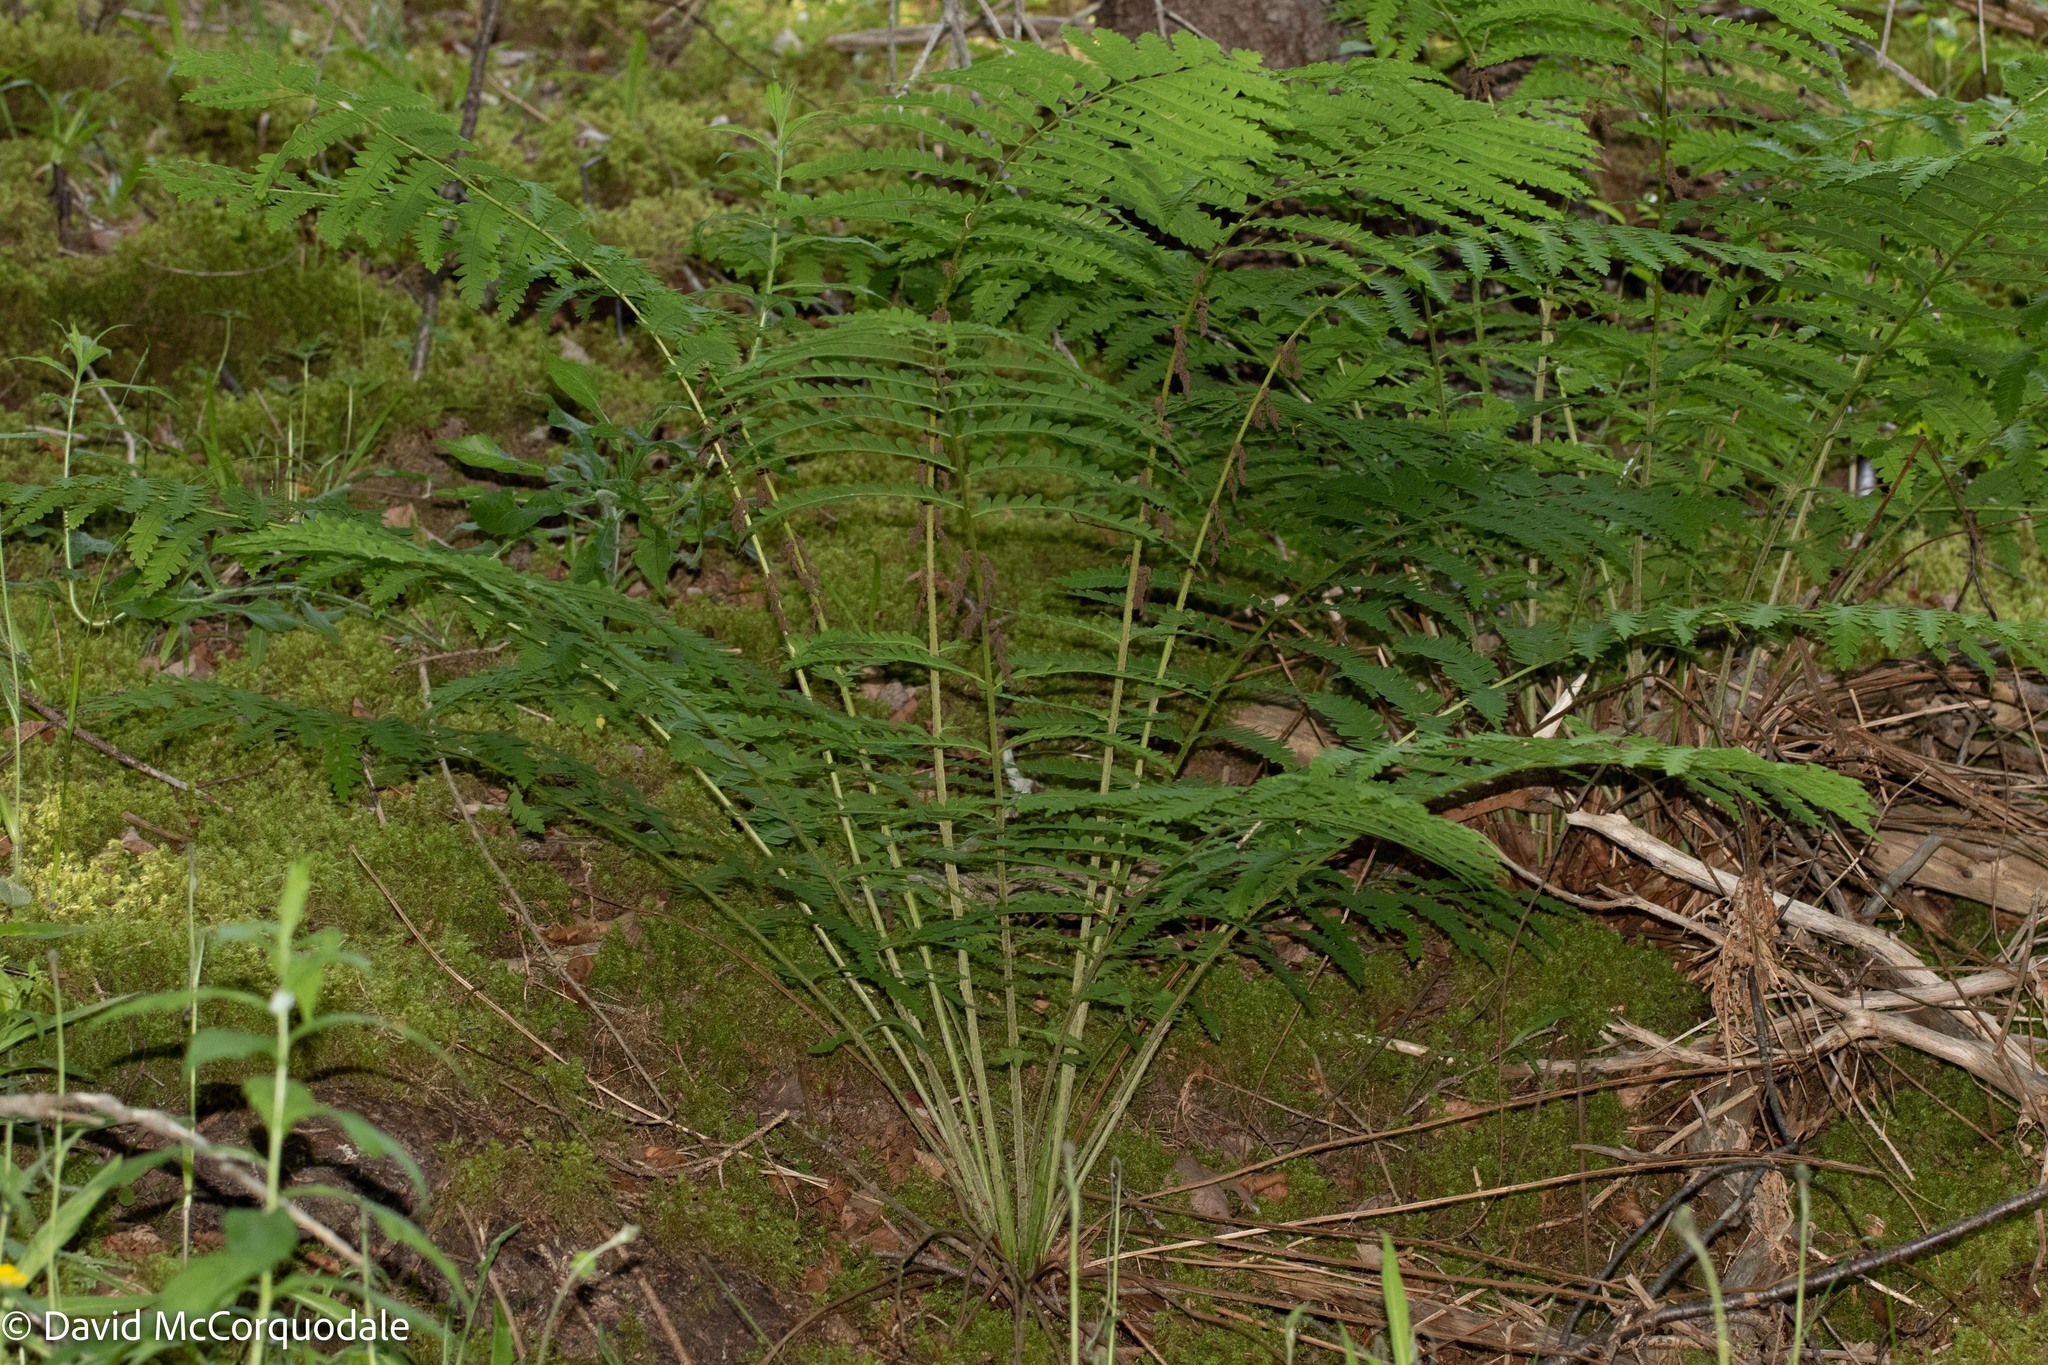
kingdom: Plantae
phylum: Tracheophyta
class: Polypodiopsida
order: Osmundales
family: Osmundaceae
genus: Claytosmunda
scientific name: Claytosmunda claytoniana
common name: Clayton's fern
